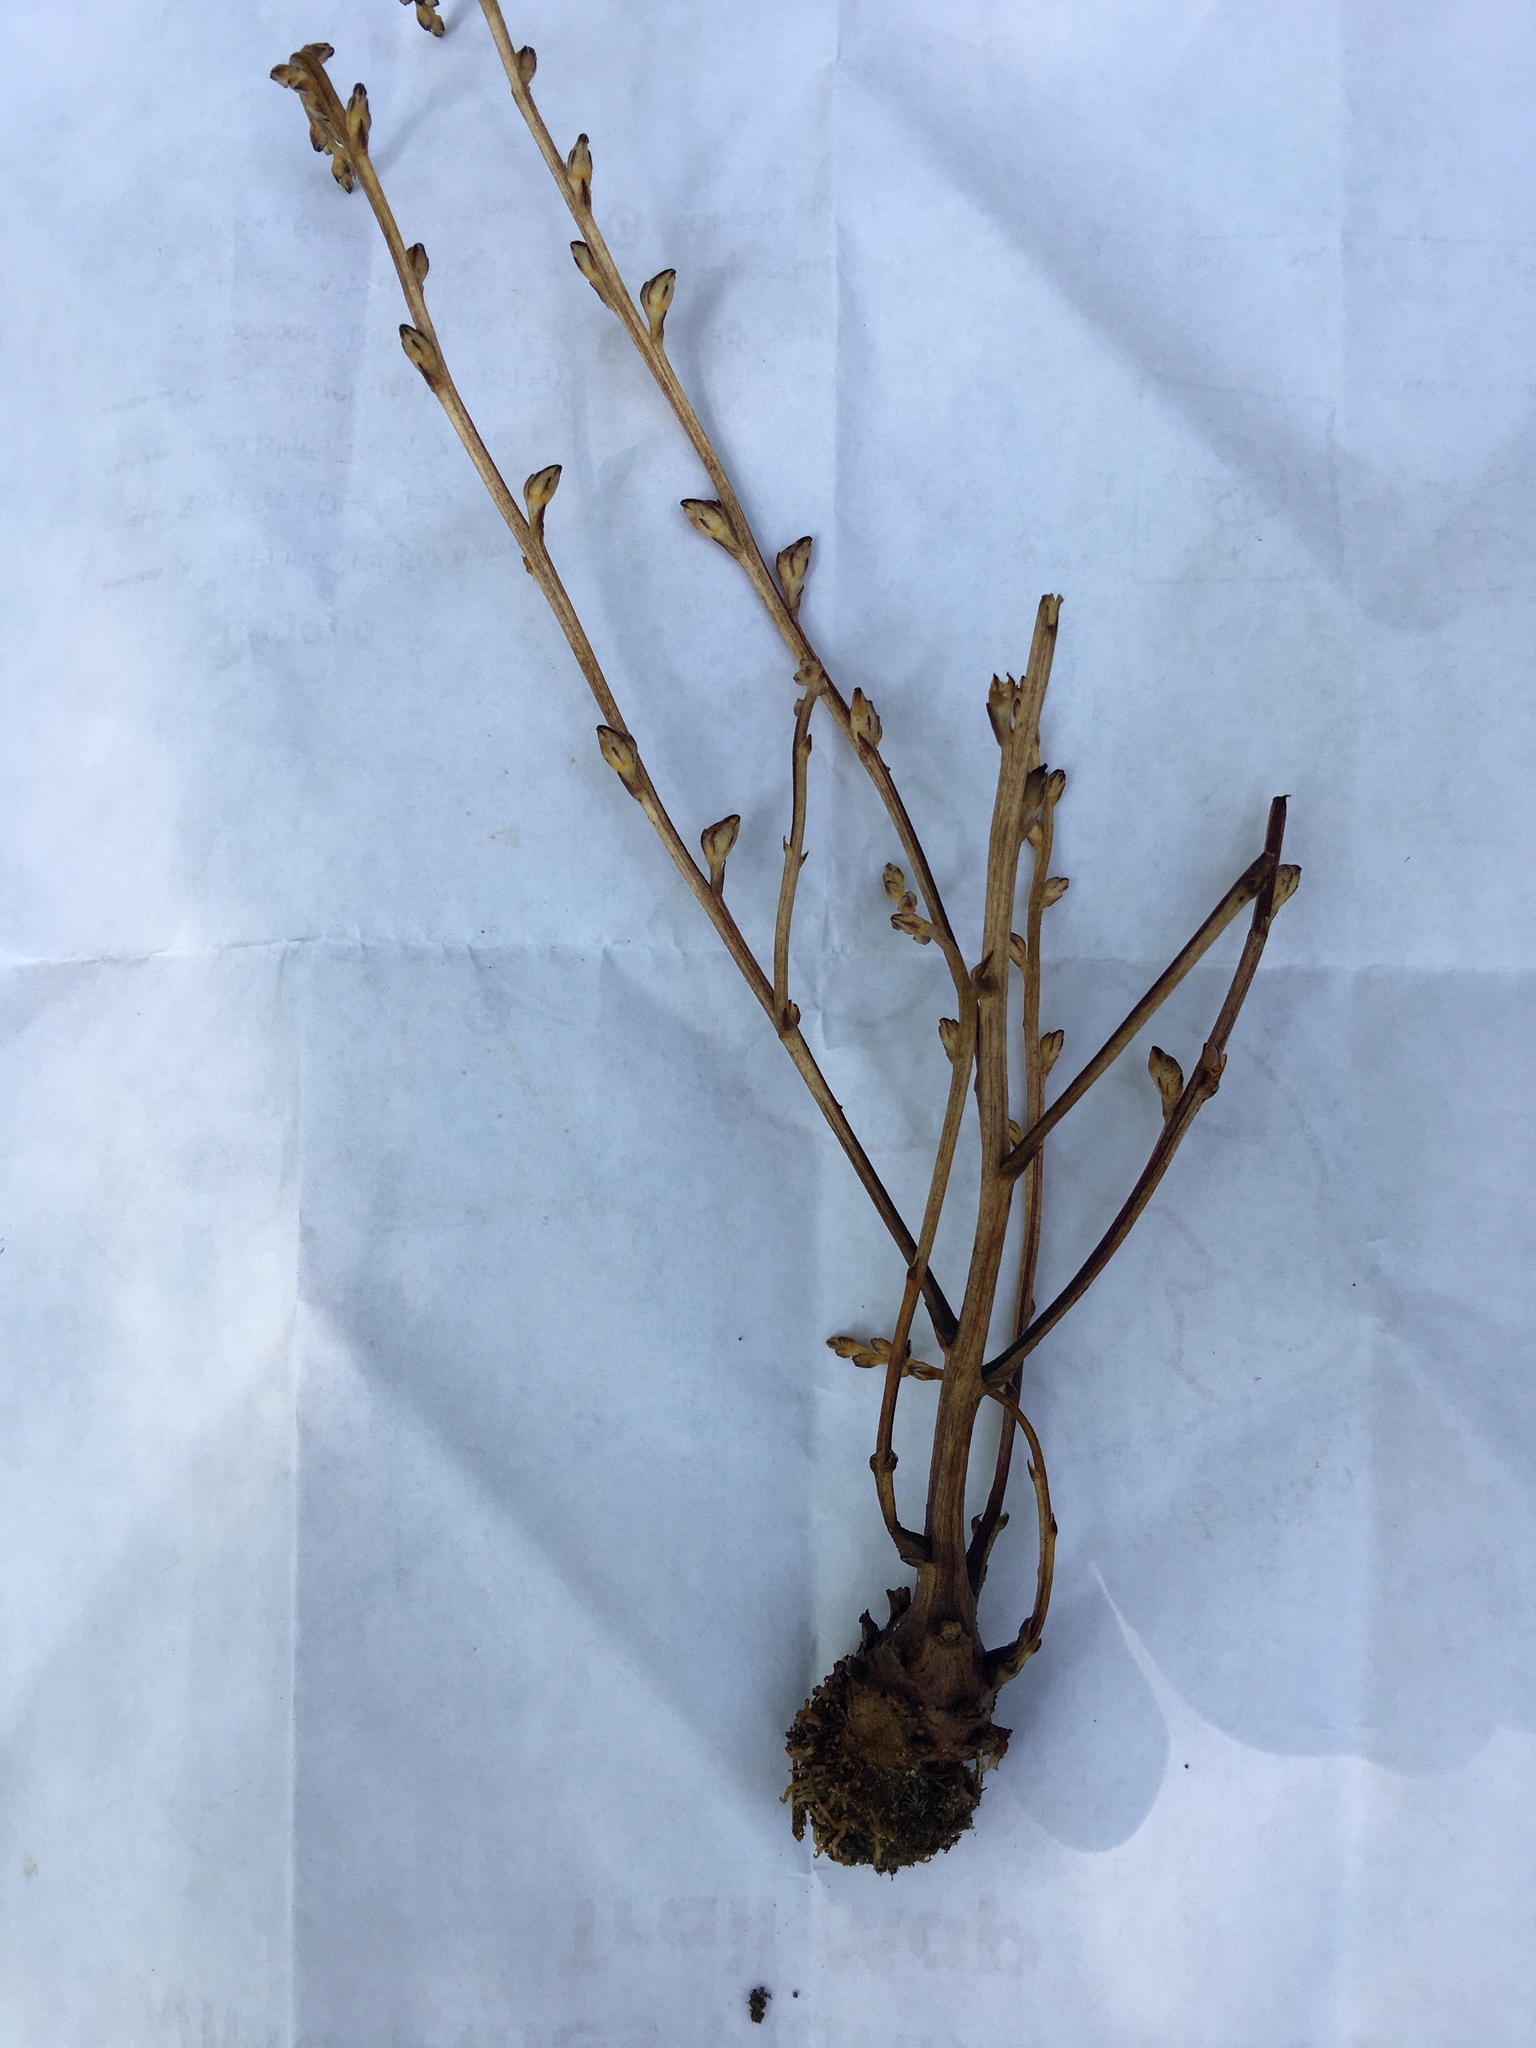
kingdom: Plantae
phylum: Tracheophyta
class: Magnoliopsida
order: Lamiales
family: Orobanchaceae
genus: Epifagus
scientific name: Epifagus virginiana
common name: Beechdrops
